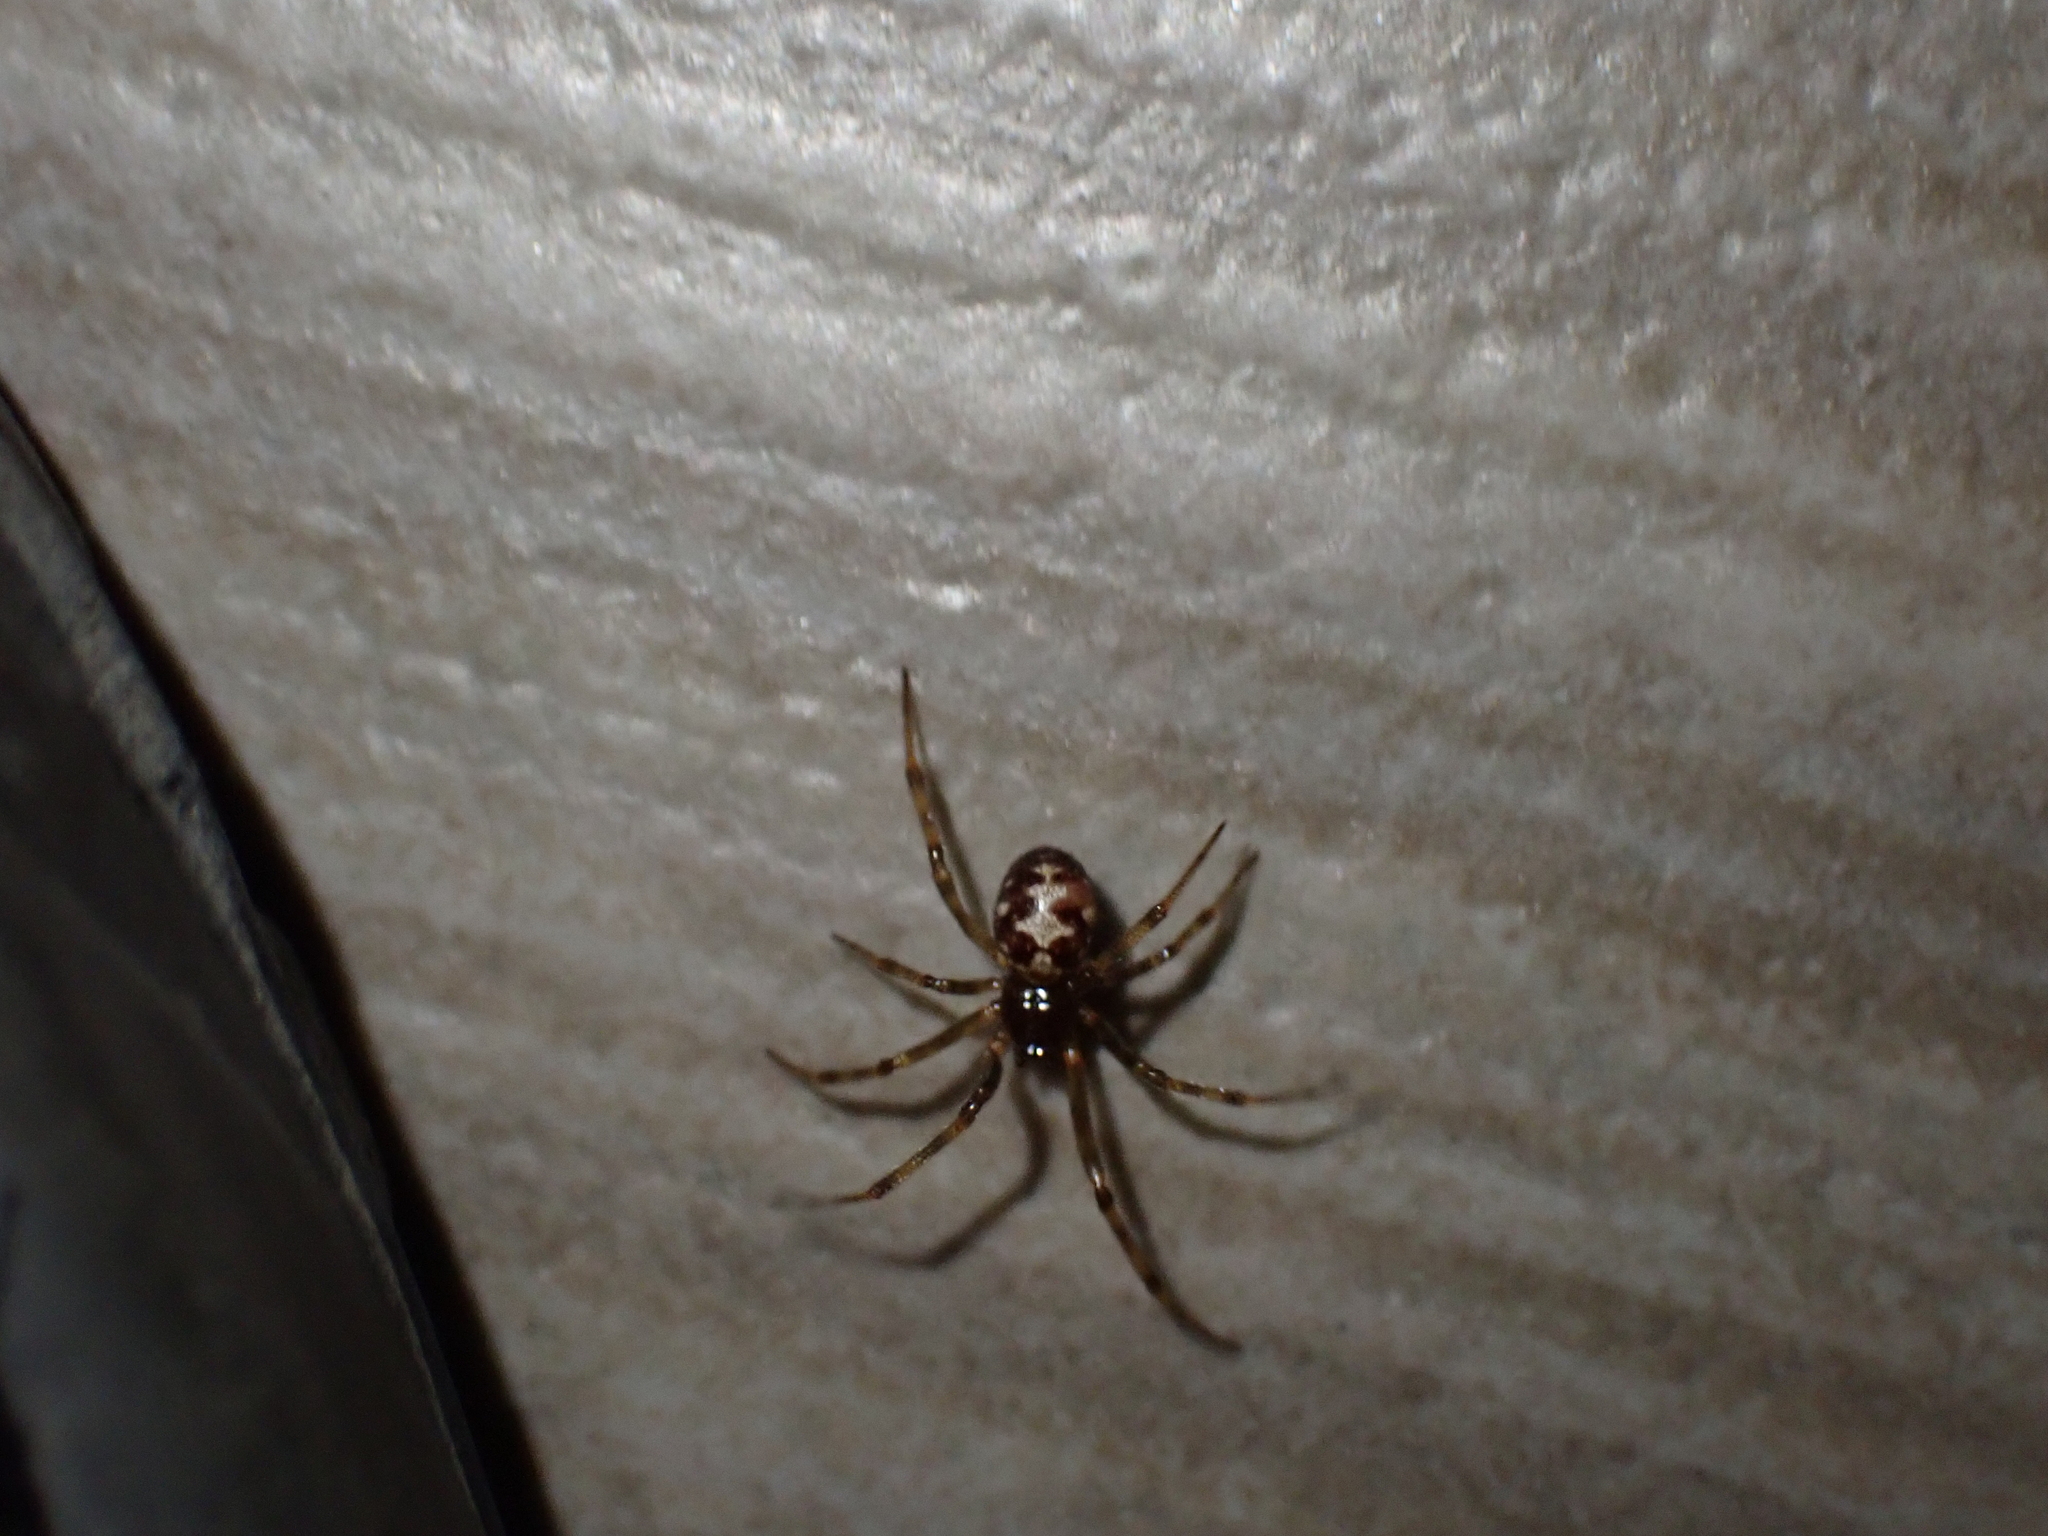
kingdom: Animalia
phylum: Arthropoda
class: Arachnida
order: Araneae
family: Theridiidae
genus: Steatoda
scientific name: Steatoda triangulosa
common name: Triangulate bud spider
